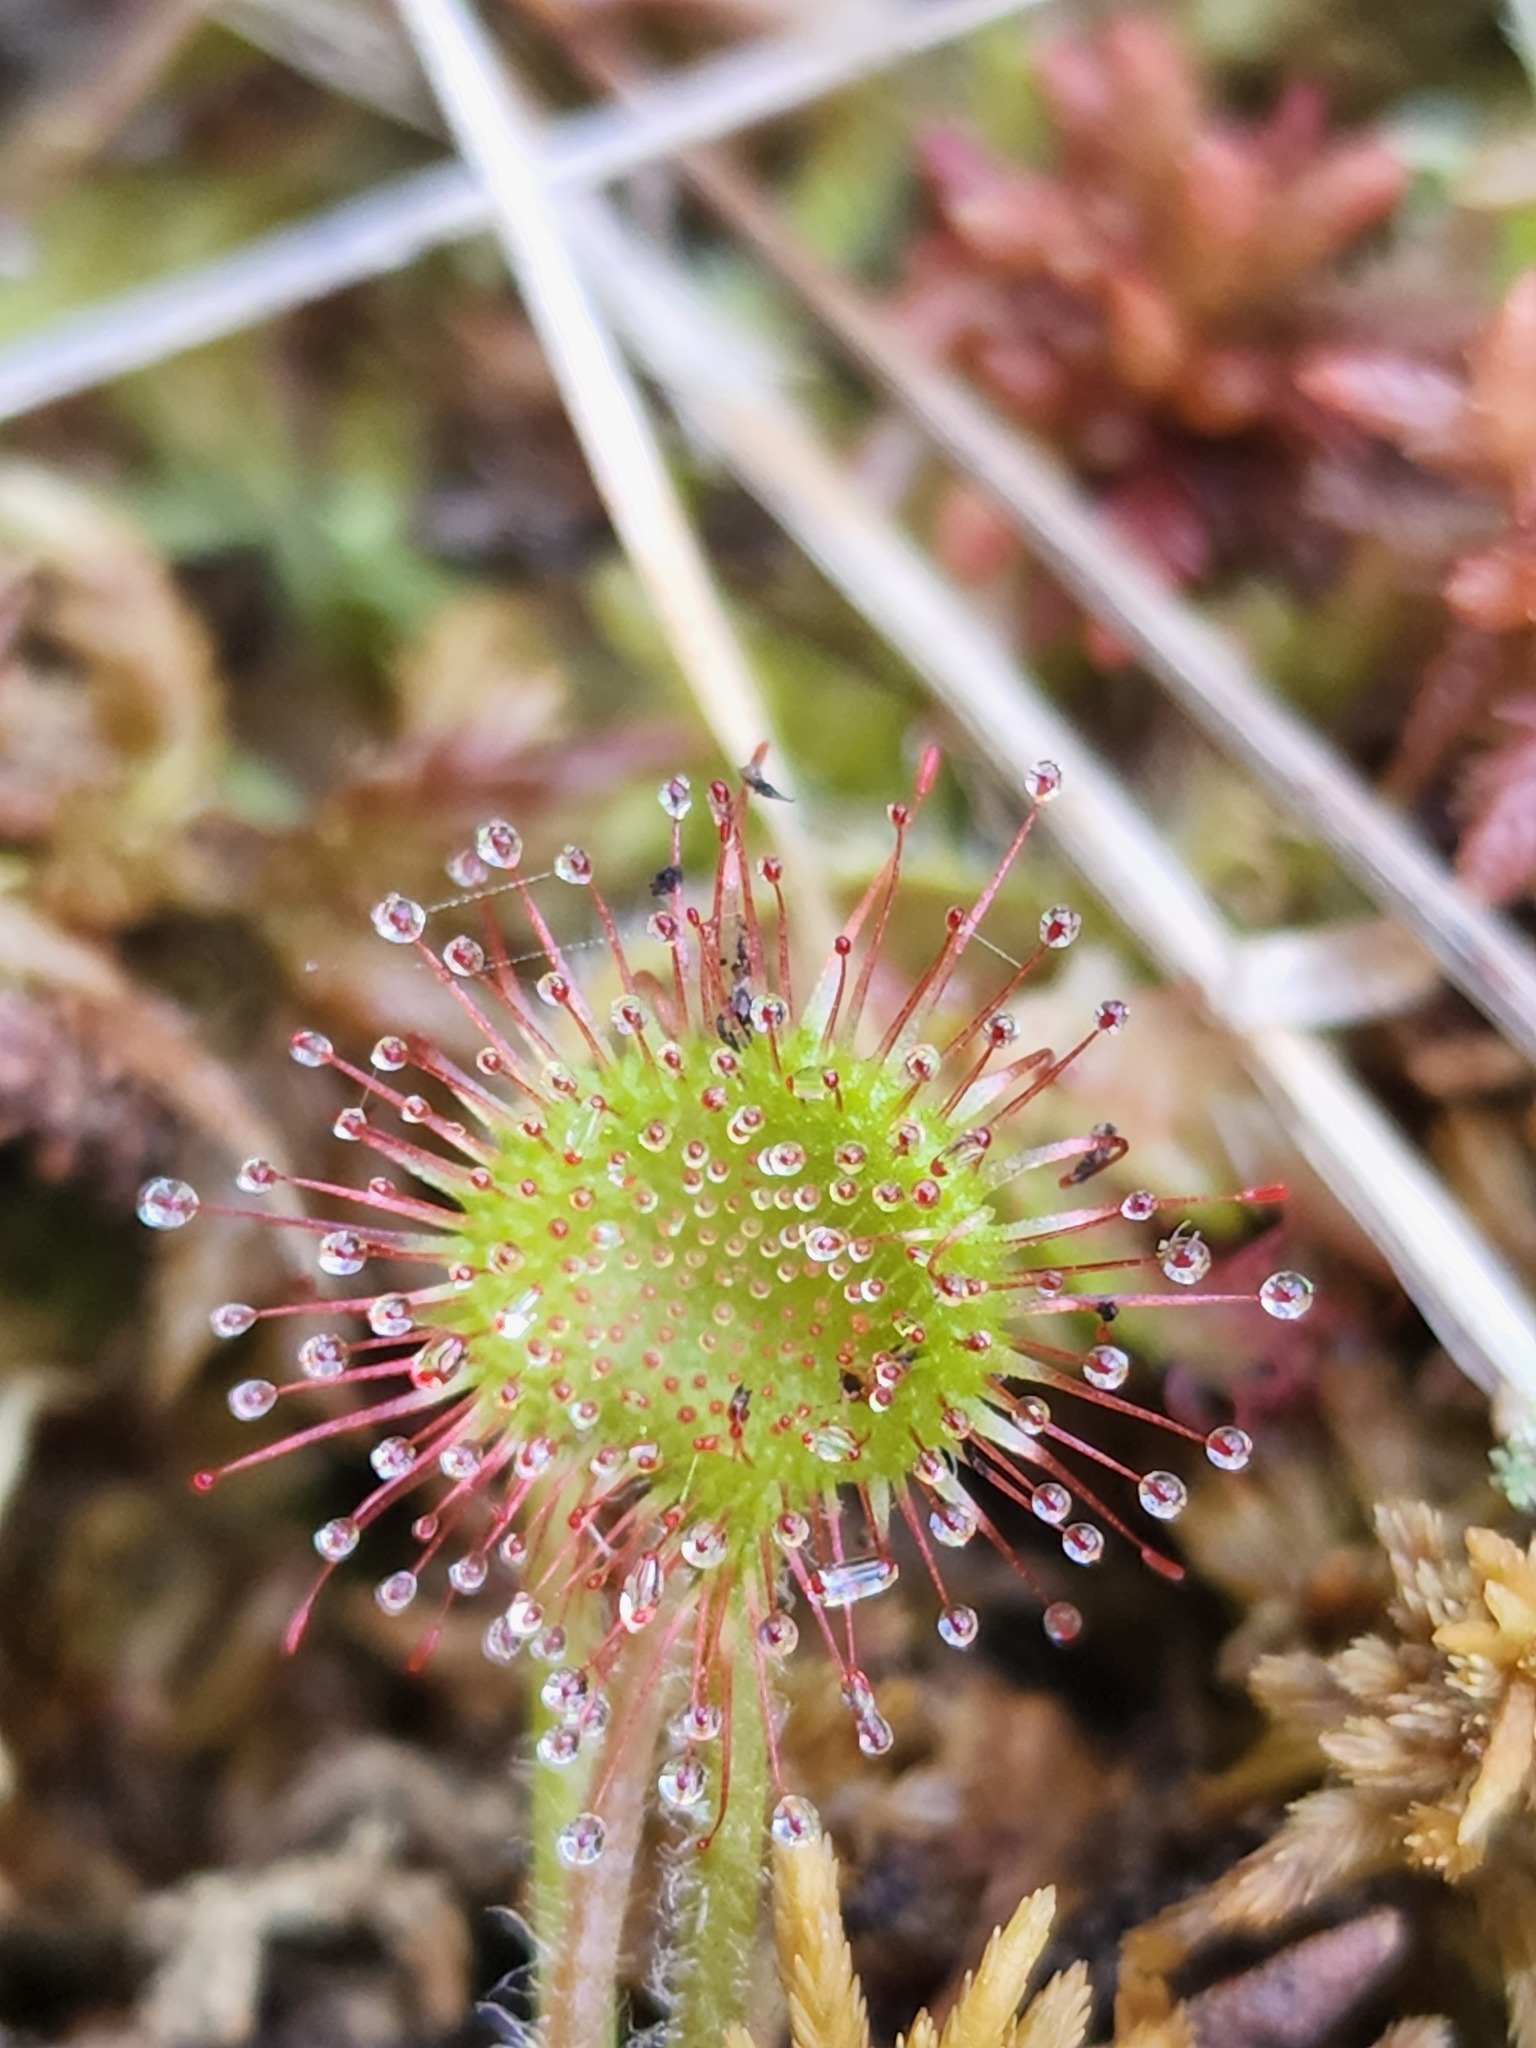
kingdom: Plantae
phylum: Tracheophyta
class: Magnoliopsida
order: Caryophyllales
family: Droseraceae
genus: Drosera
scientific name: Drosera rotundifolia
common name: Round-leaved sundew
